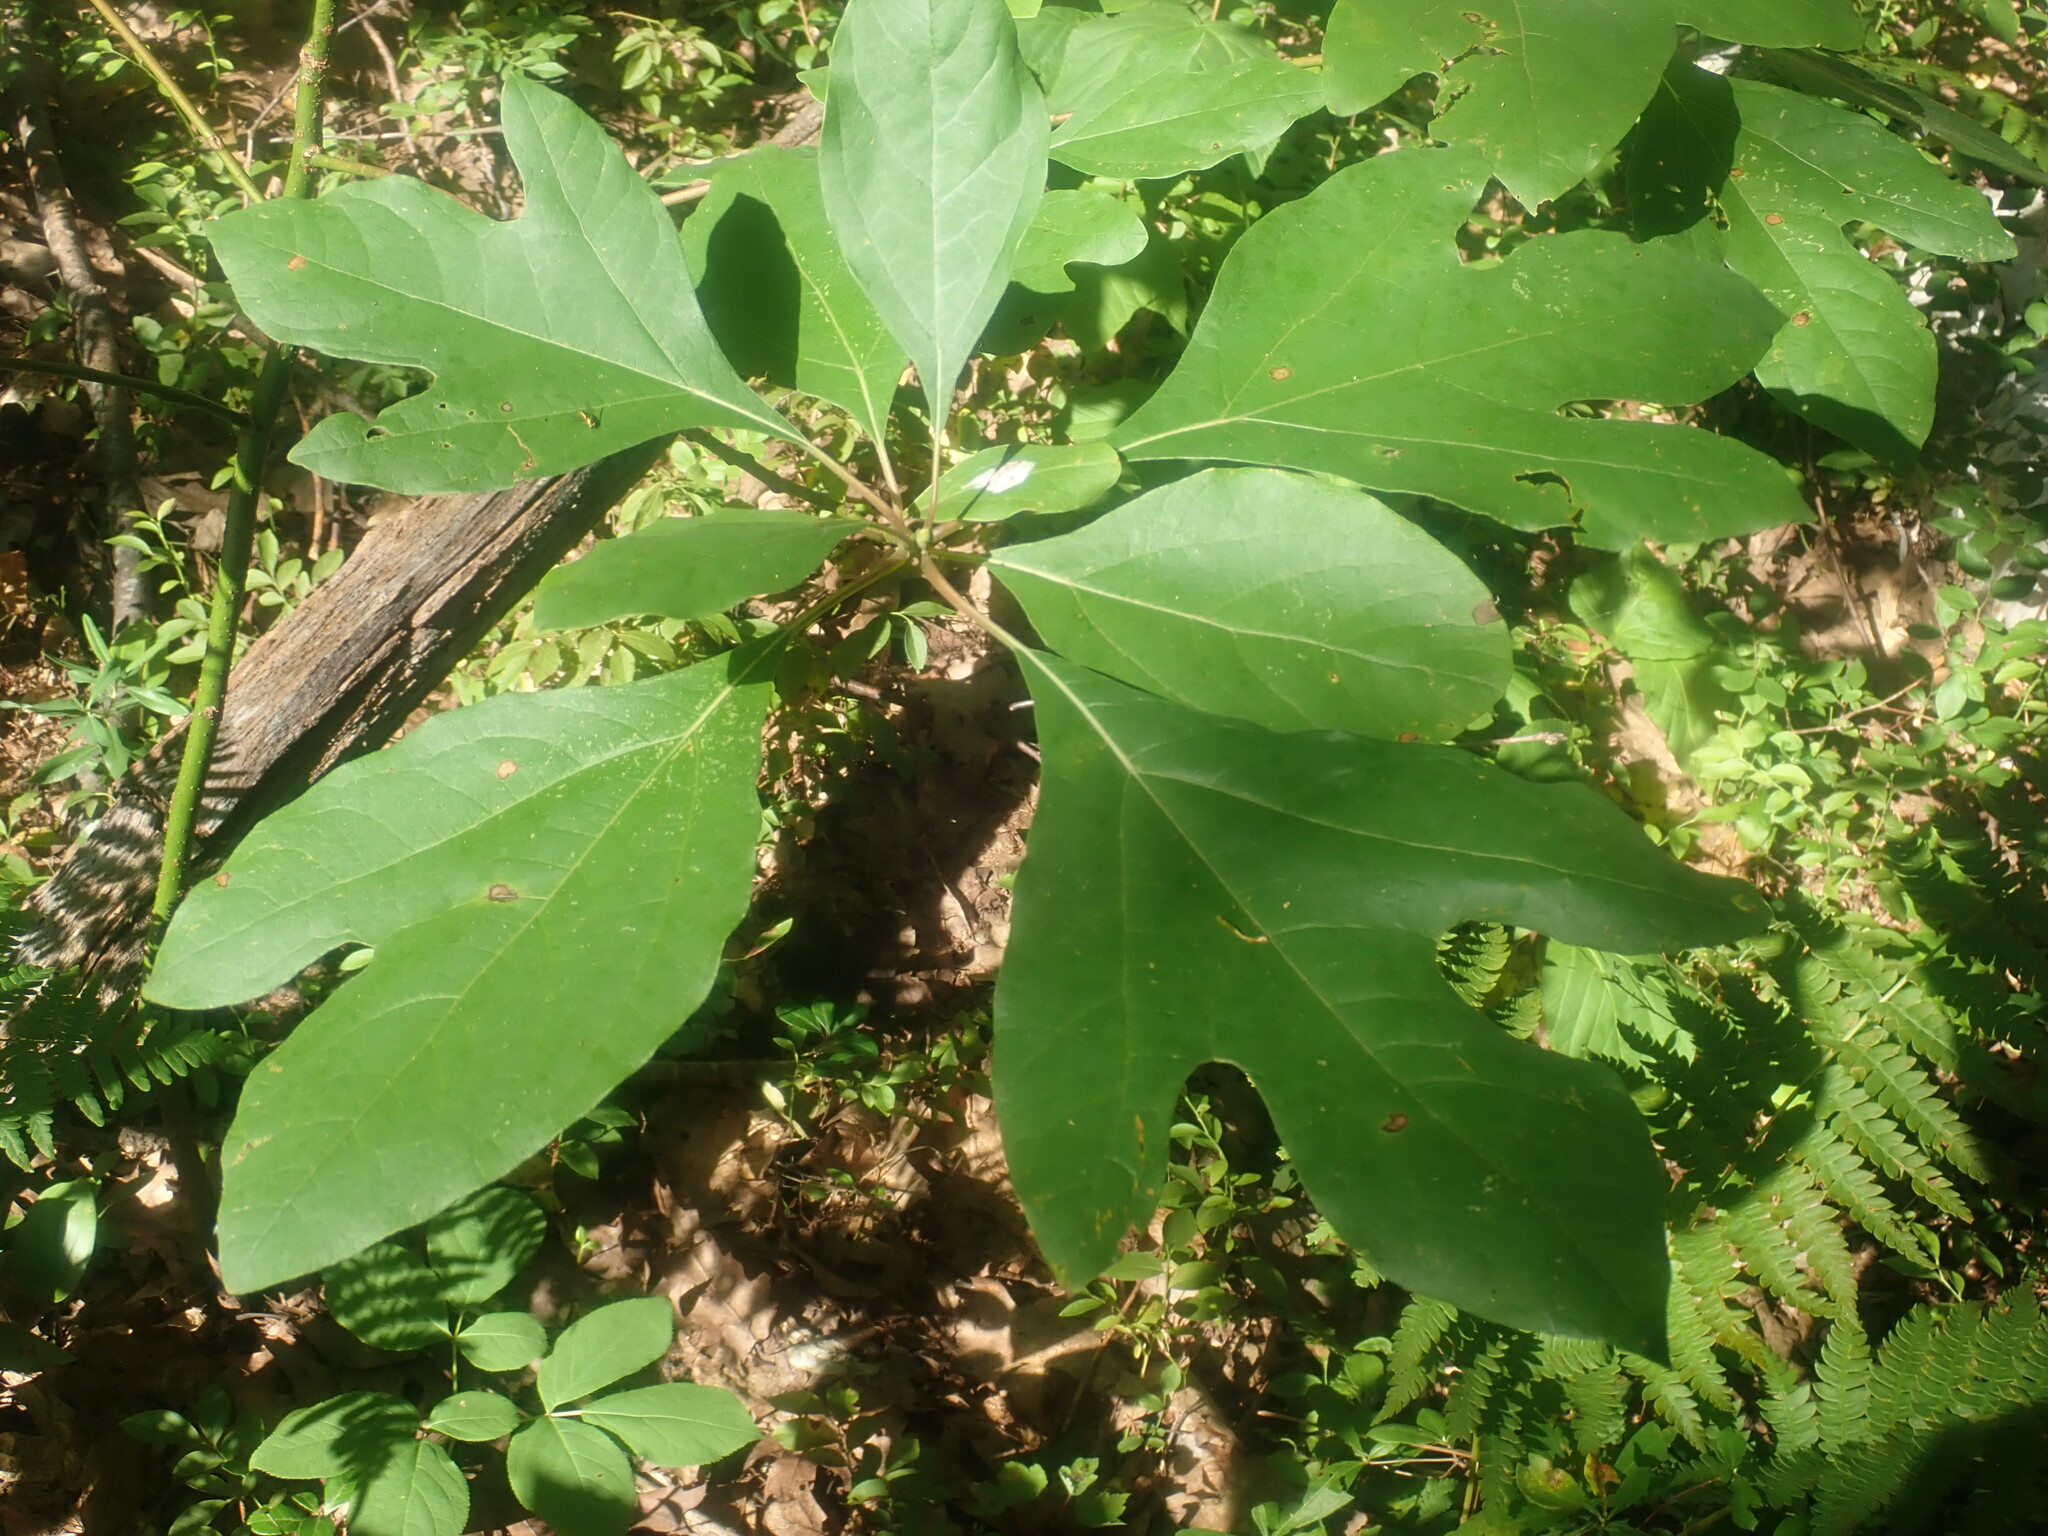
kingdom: Plantae
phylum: Tracheophyta
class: Magnoliopsida
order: Laurales
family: Lauraceae
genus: Sassafras
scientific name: Sassafras albidum
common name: Sassafras
